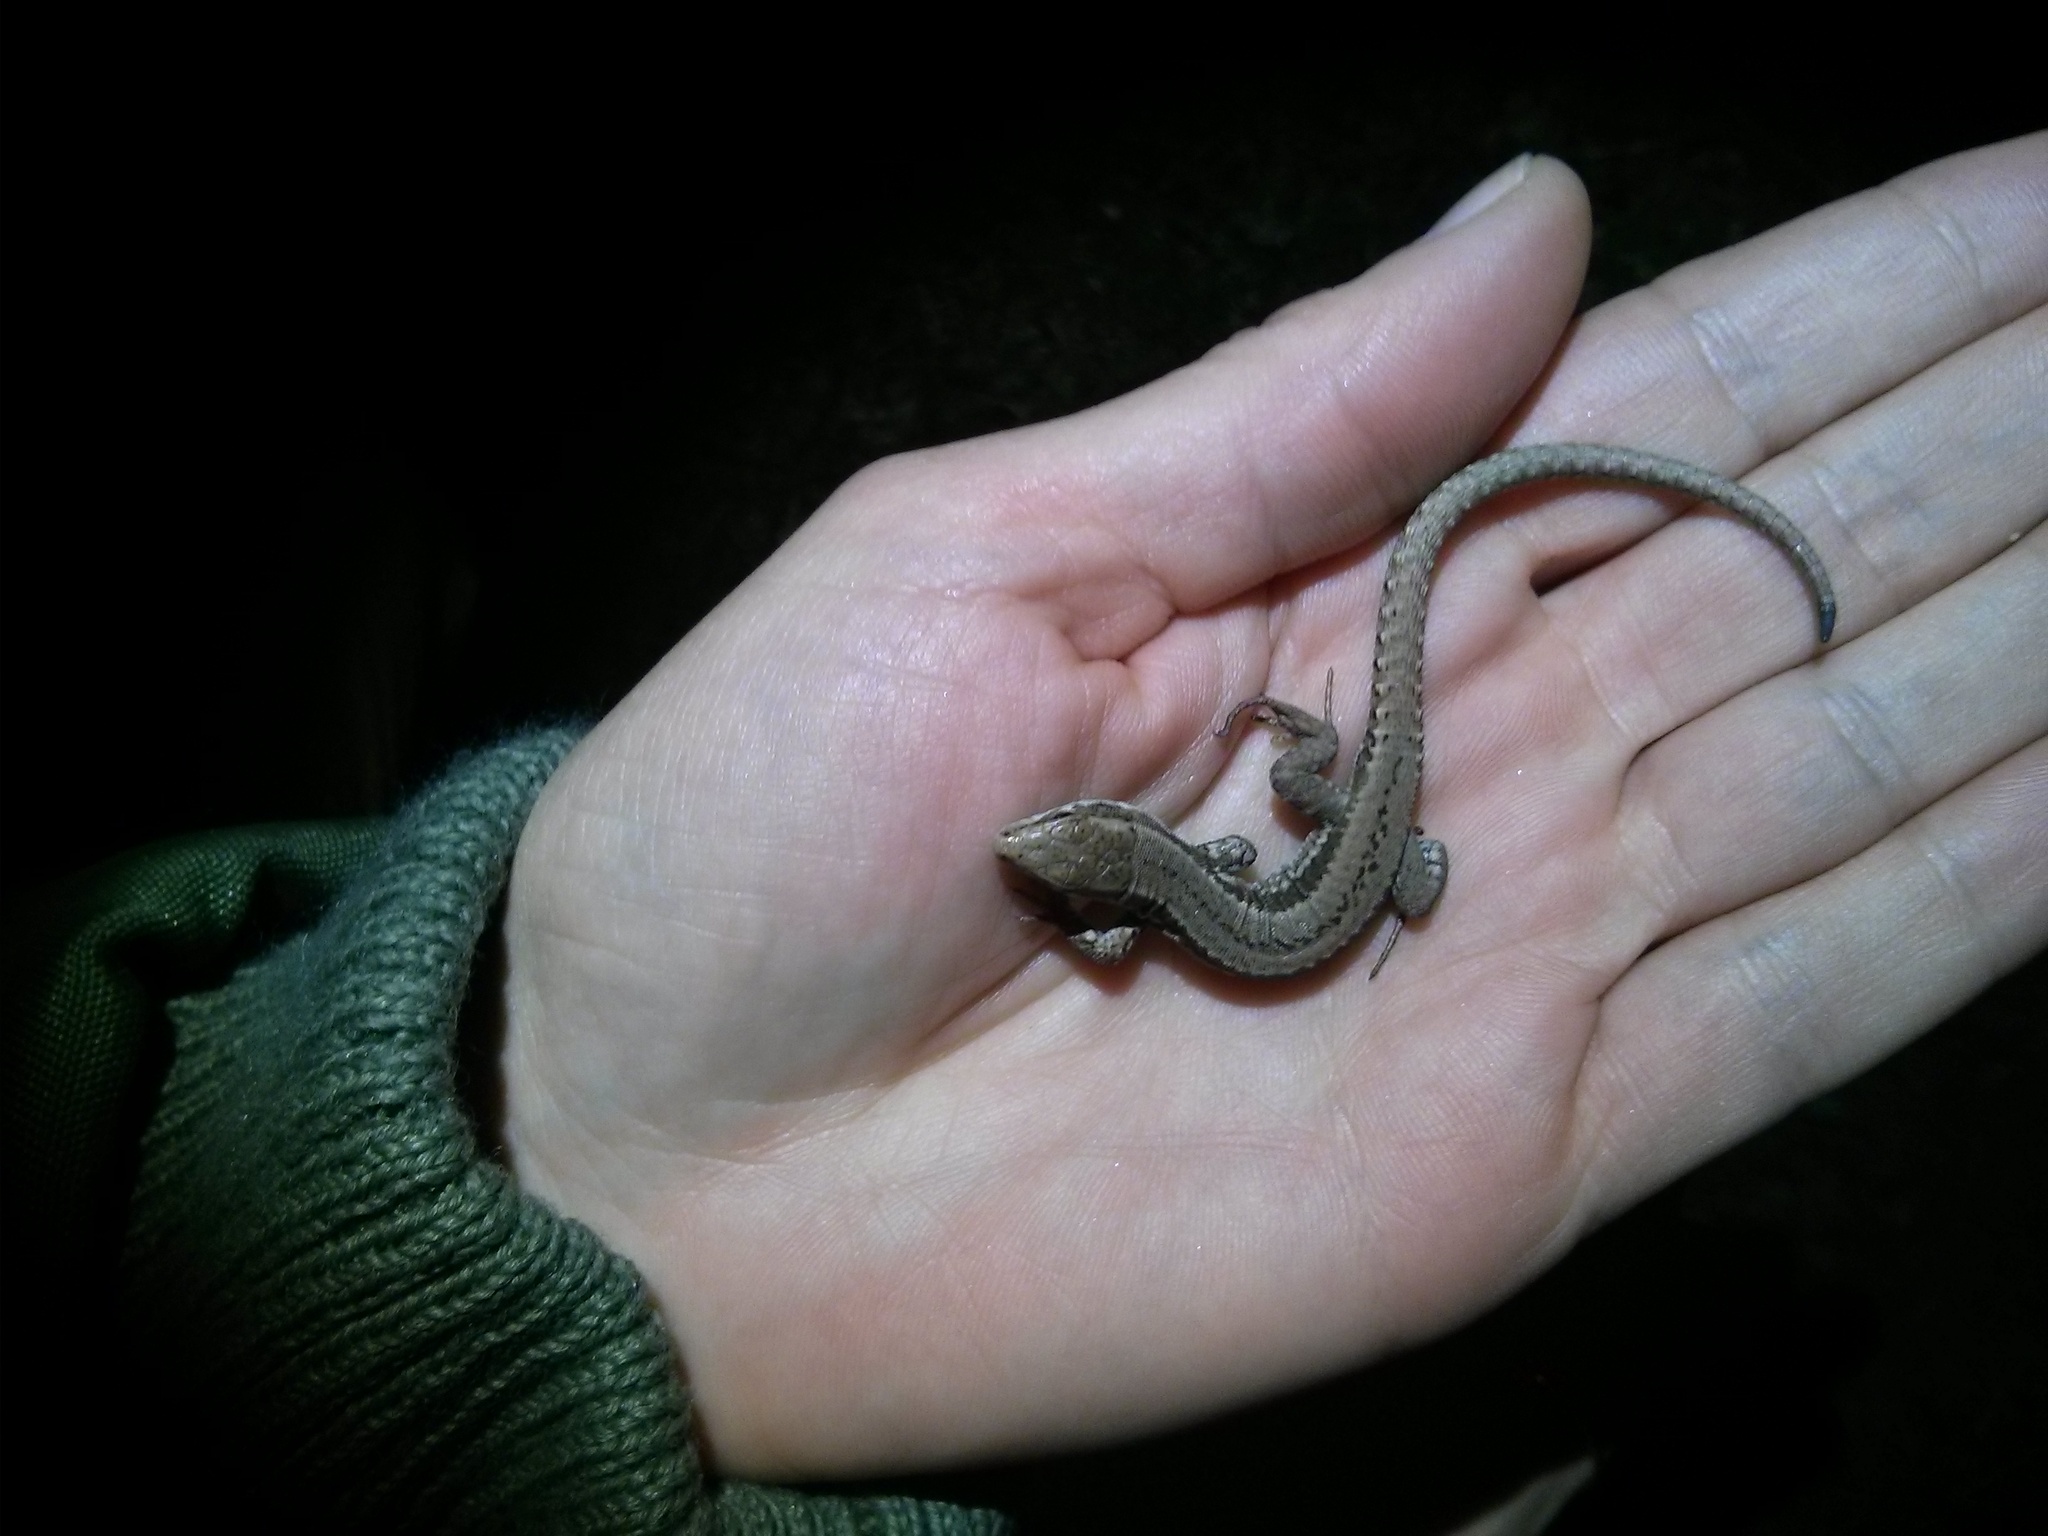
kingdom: Animalia
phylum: Chordata
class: Squamata
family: Lacertidae
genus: Podarcis
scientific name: Podarcis muralis
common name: Common wall lizard
